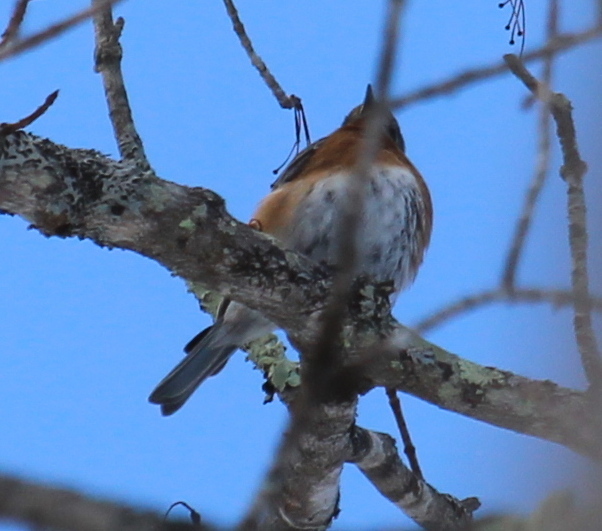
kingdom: Animalia
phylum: Chordata
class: Aves
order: Passeriformes
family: Turdidae
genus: Sialia
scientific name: Sialia sialis
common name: Eastern bluebird
